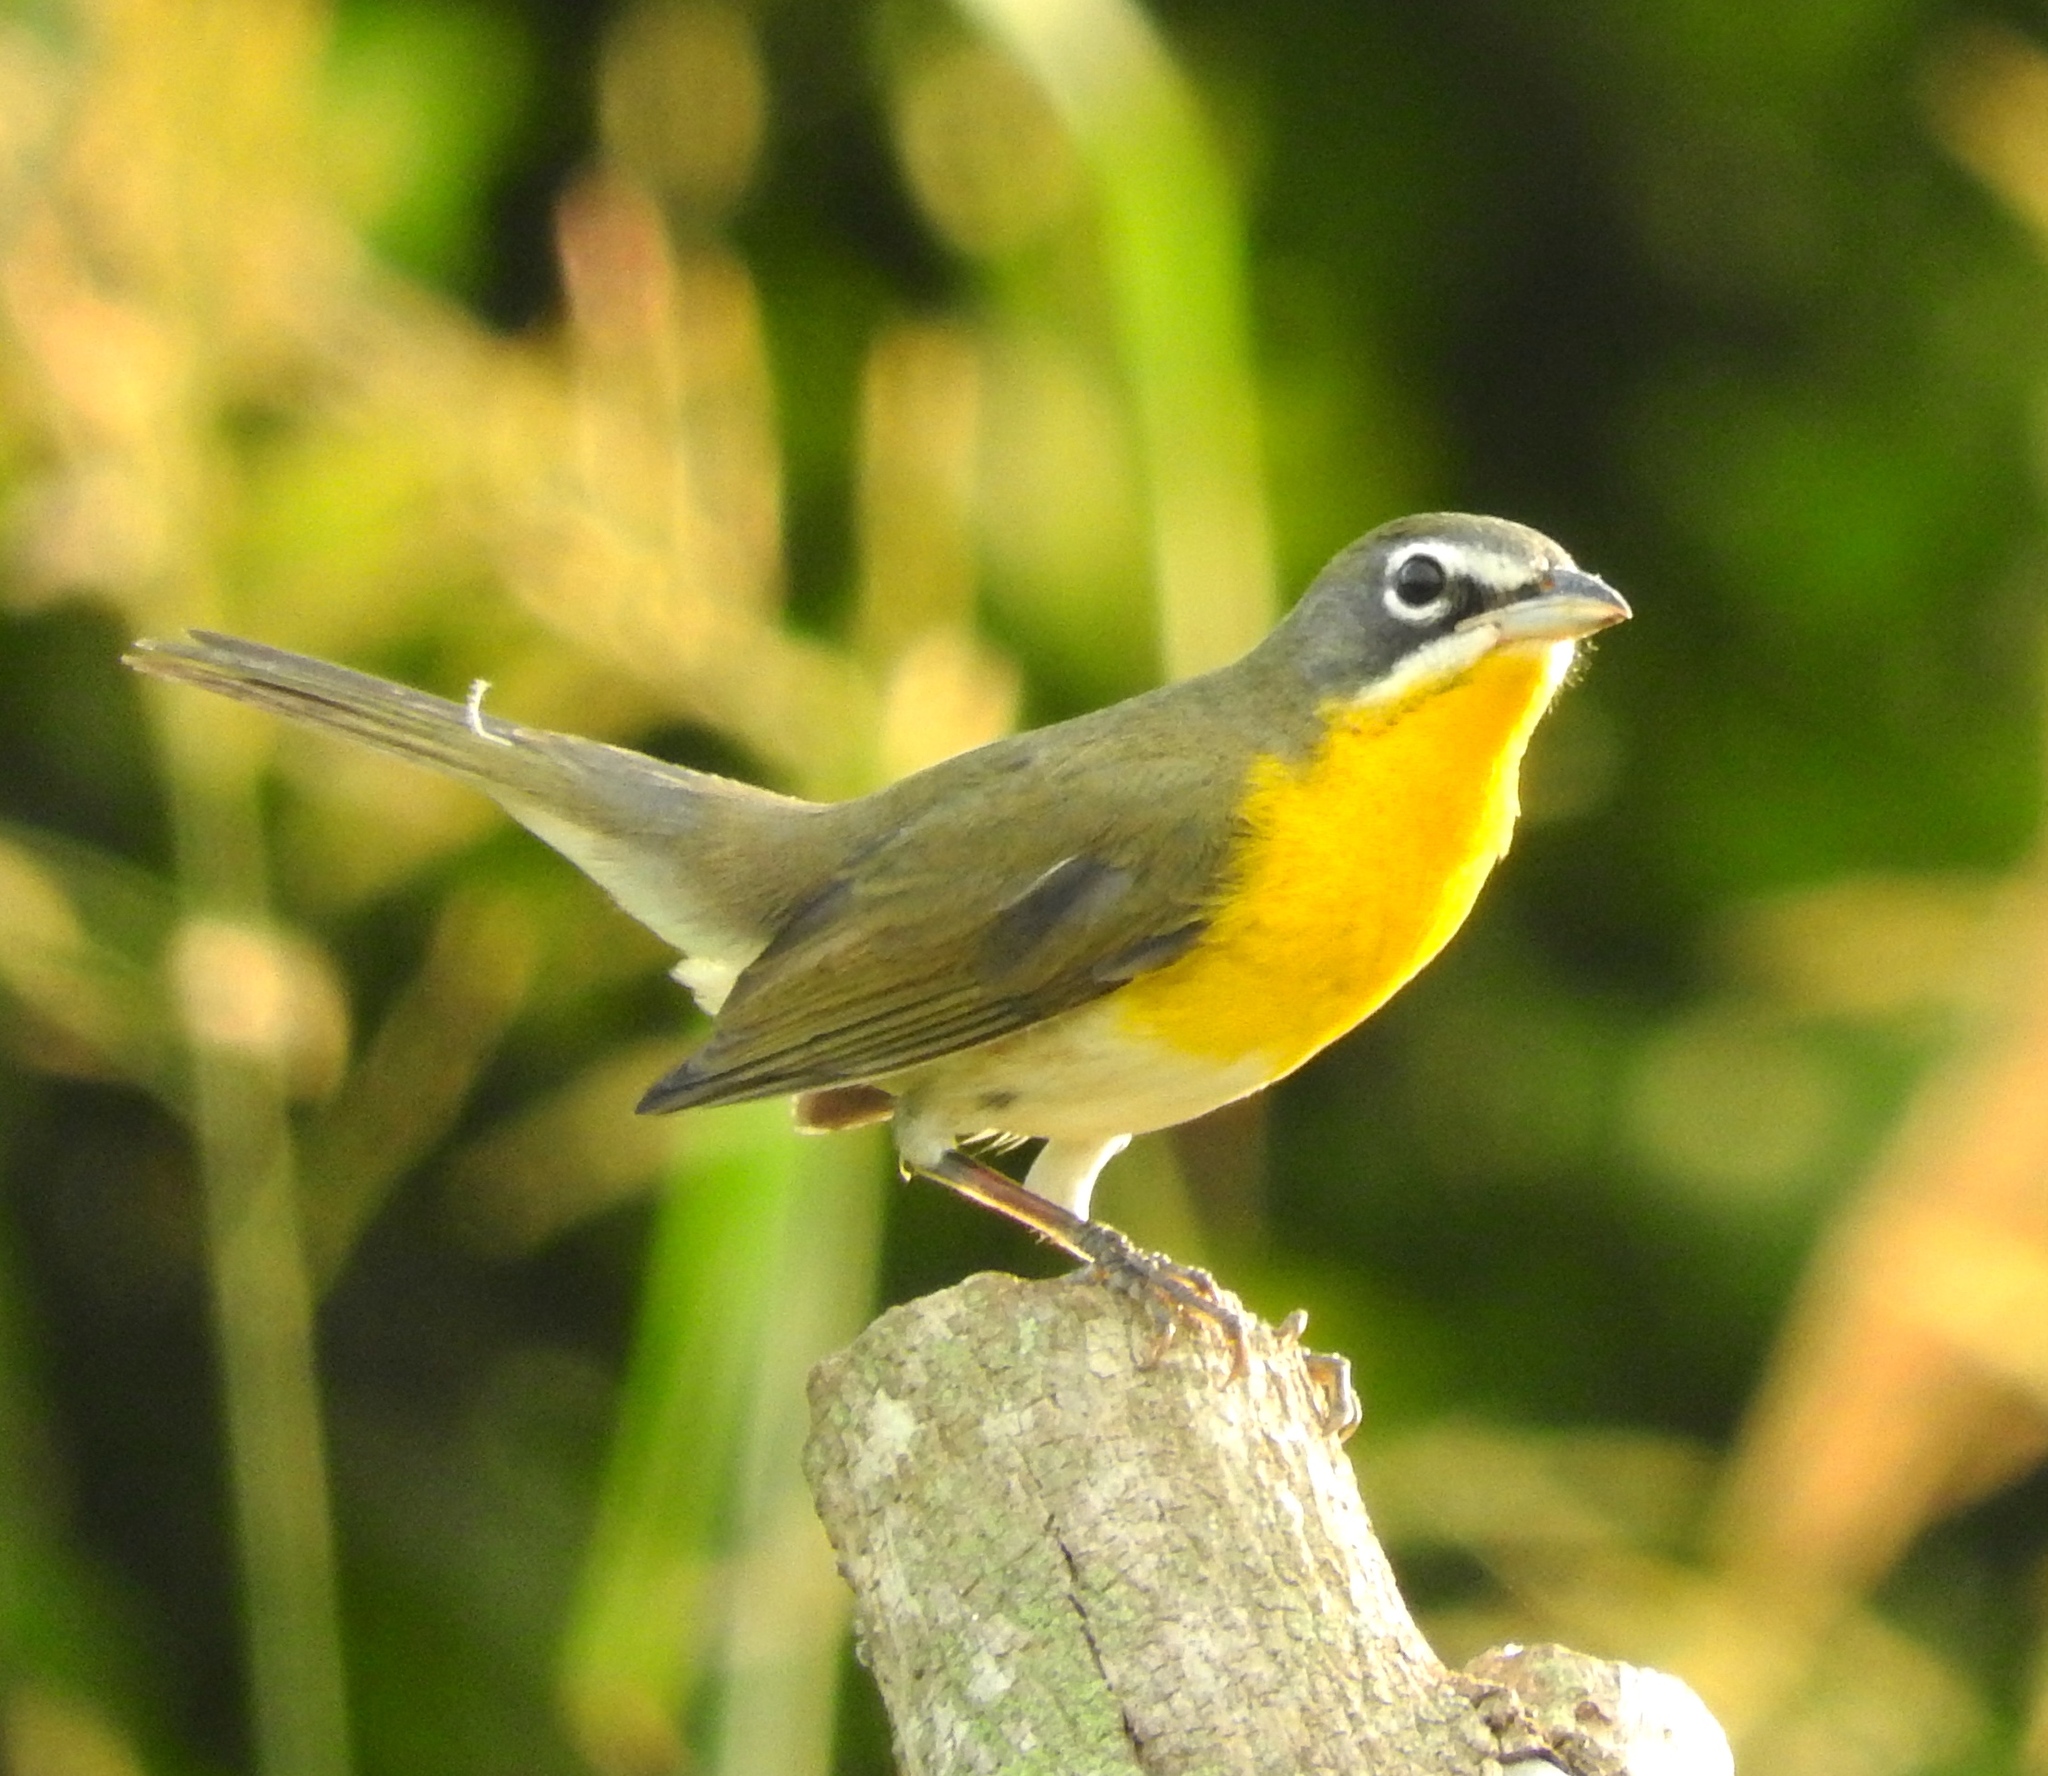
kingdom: Animalia
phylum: Chordata
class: Aves
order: Passeriformes
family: Parulidae
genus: Icteria
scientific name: Icteria virens
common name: Yellow-breasted chat
